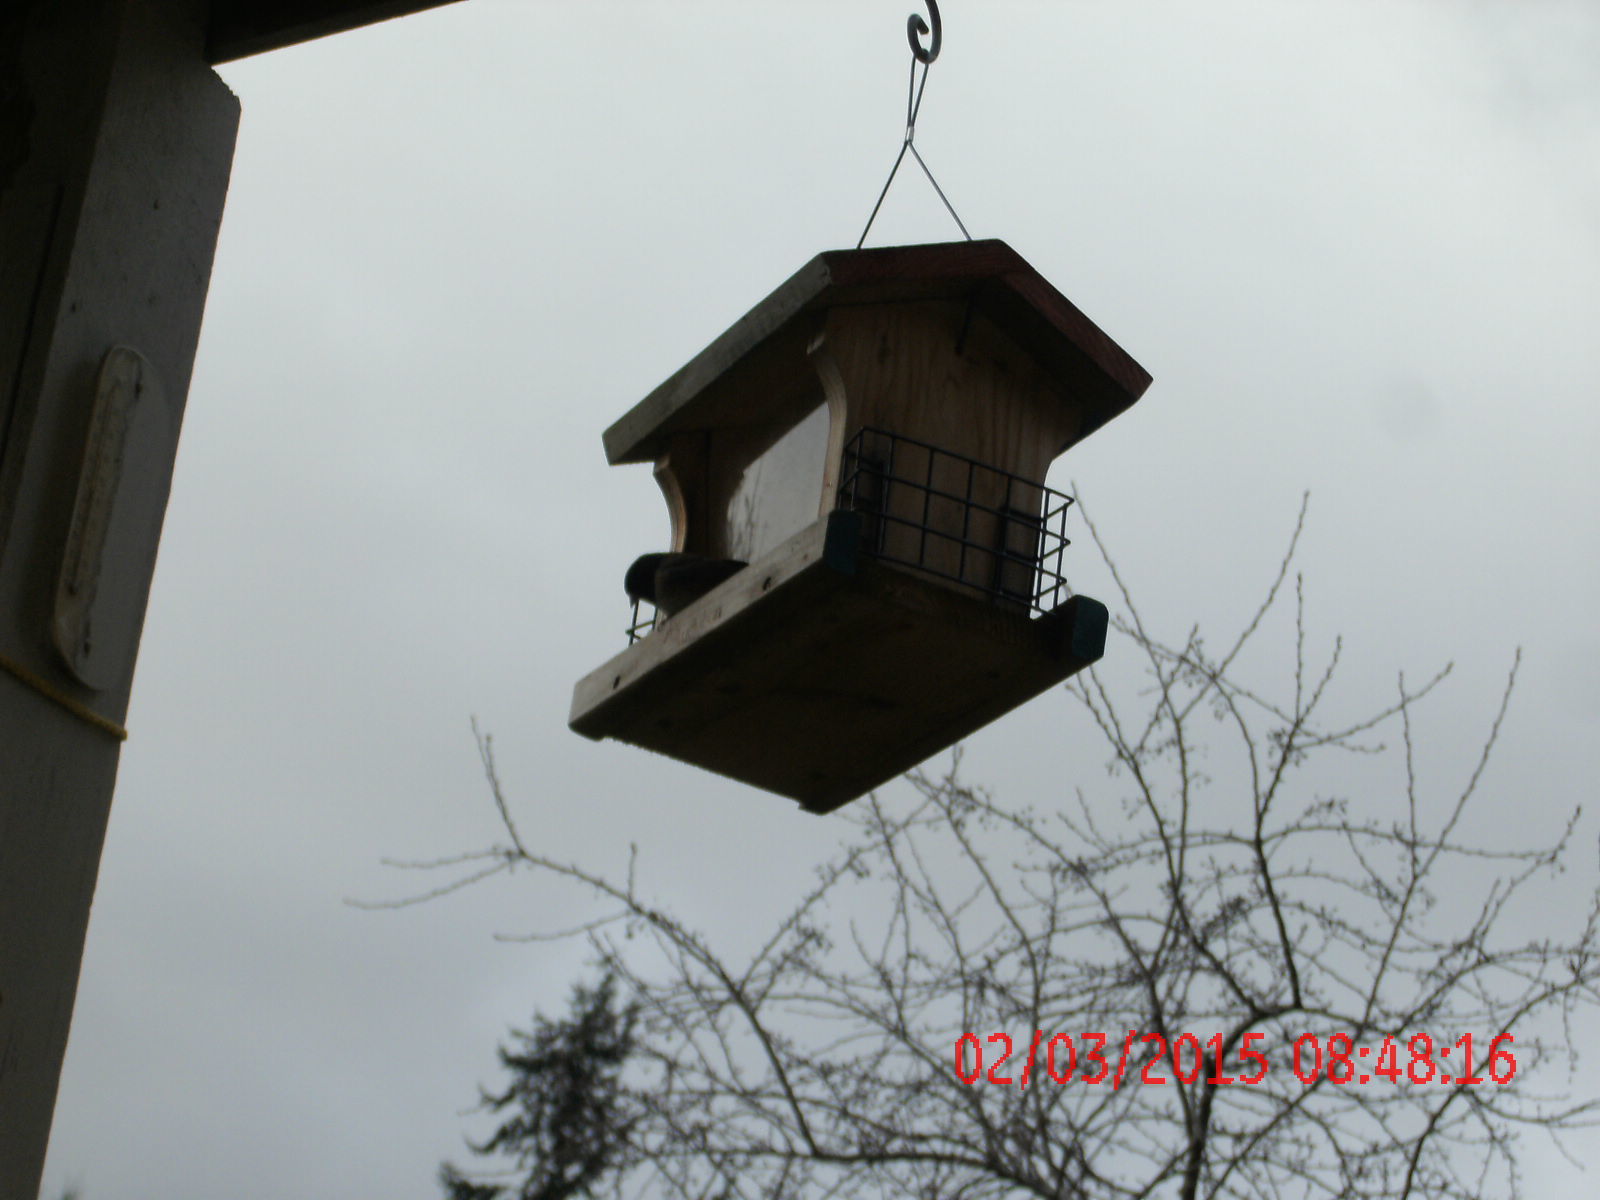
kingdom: Animalia
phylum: Chordata
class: Aves
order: Passeriformes
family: Passerellidae
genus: Junco
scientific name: Junco hyemalis
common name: Dark-eyed junco
